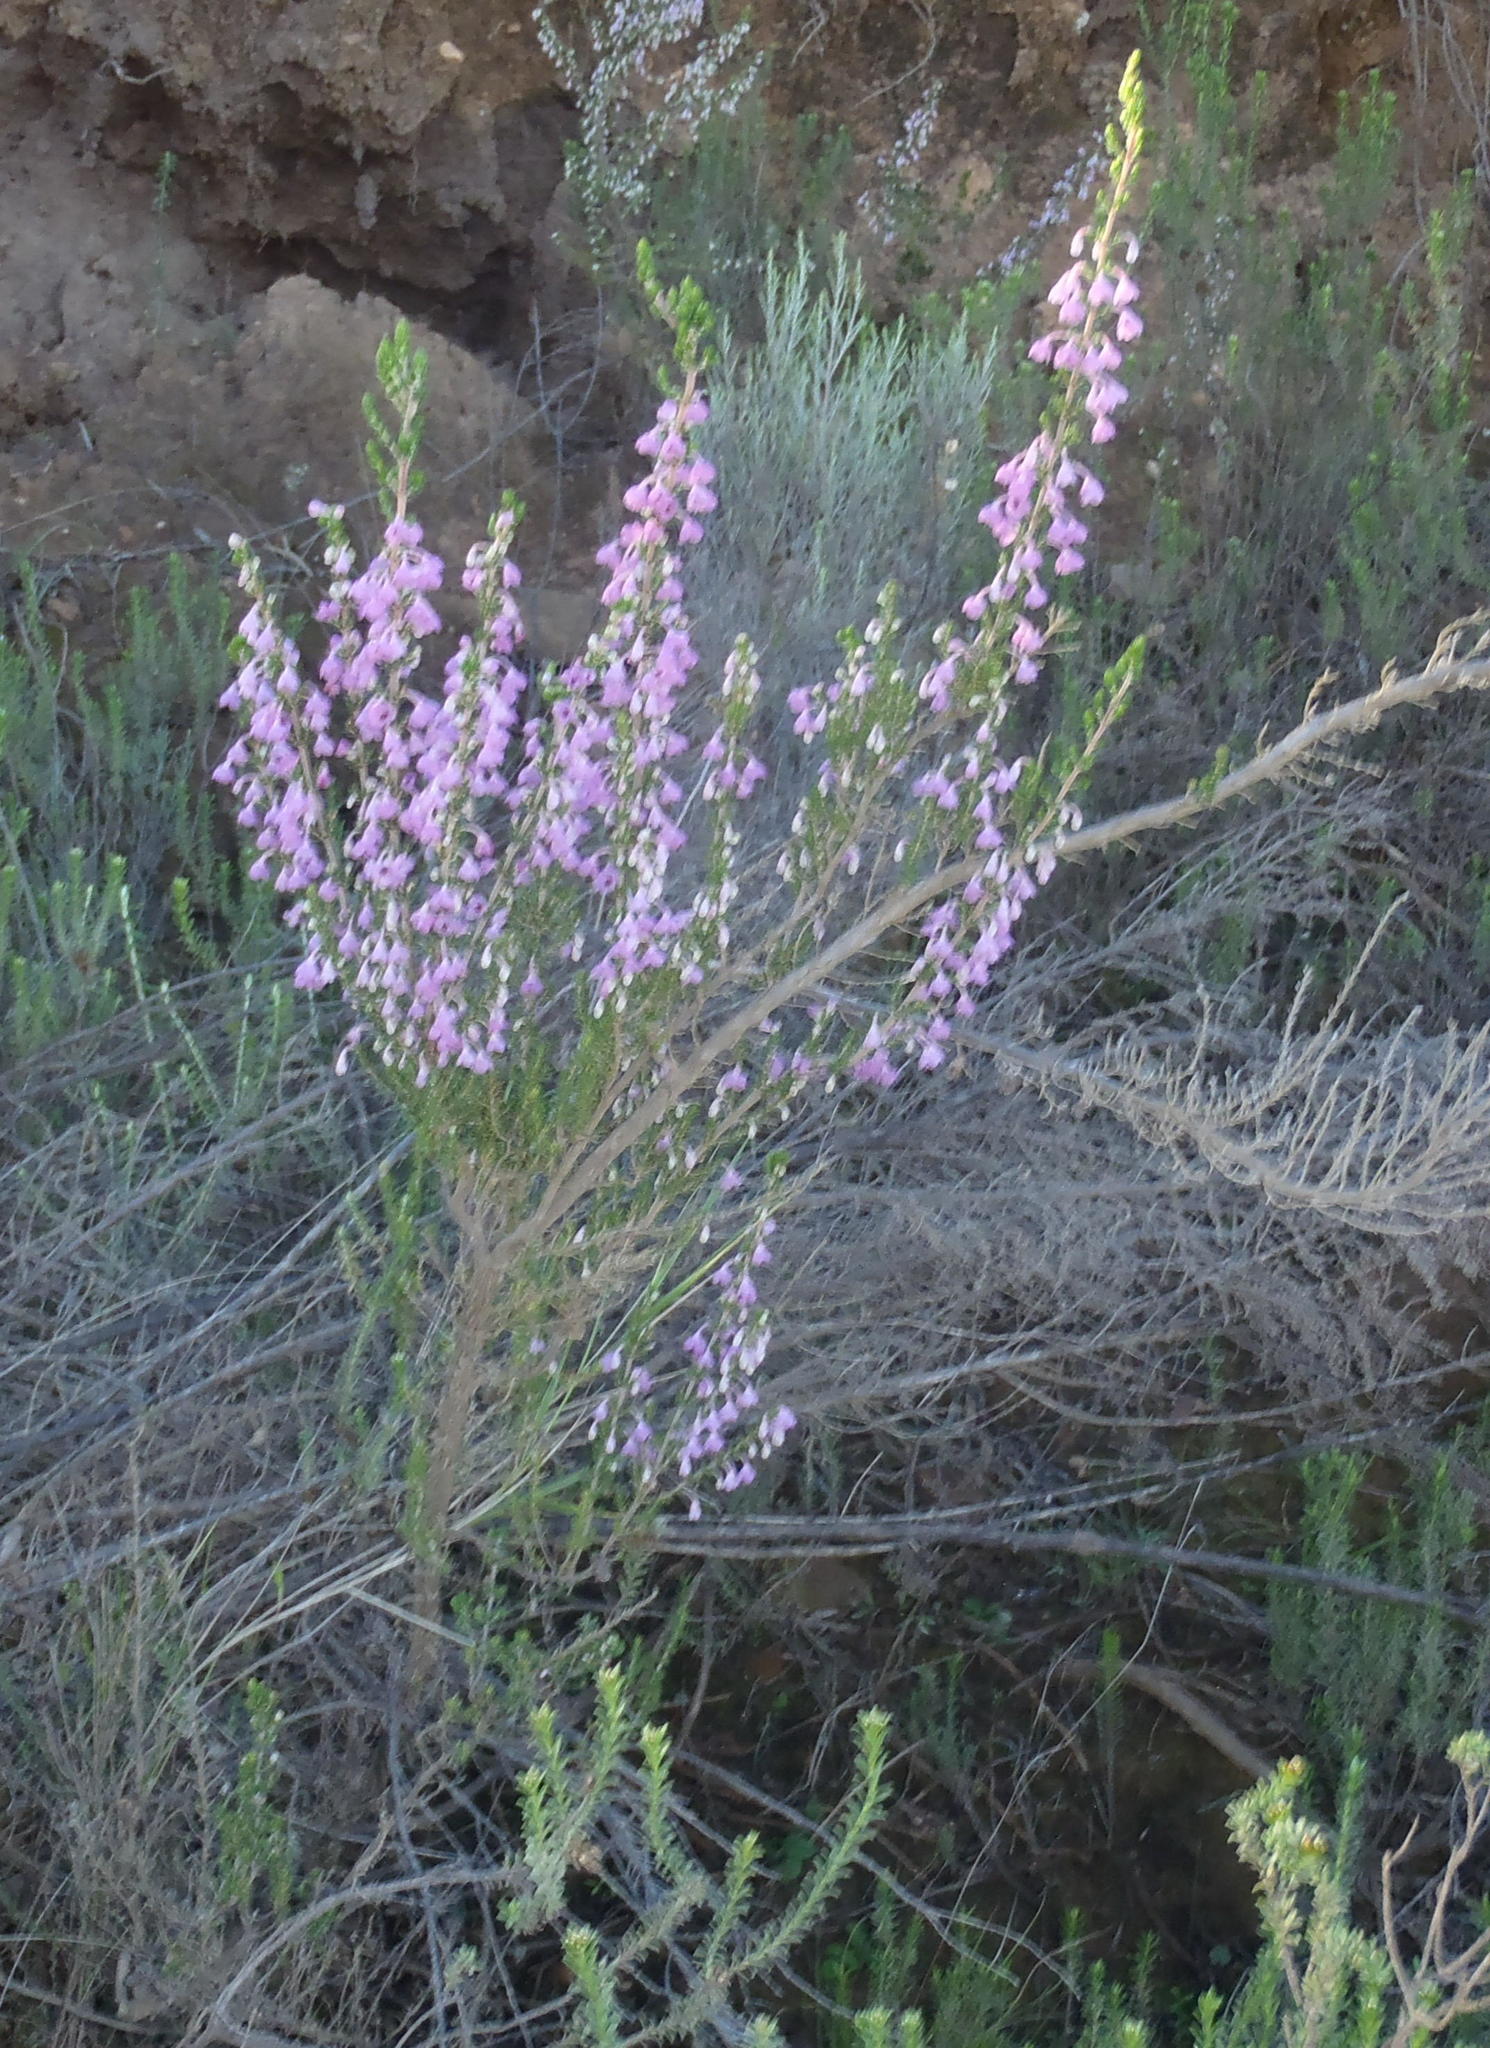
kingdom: Plantae
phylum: Tracheophyta
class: Magnoliopsida
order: Ericales
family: Ericaceae
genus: Erica
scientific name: Erica newdigatei
